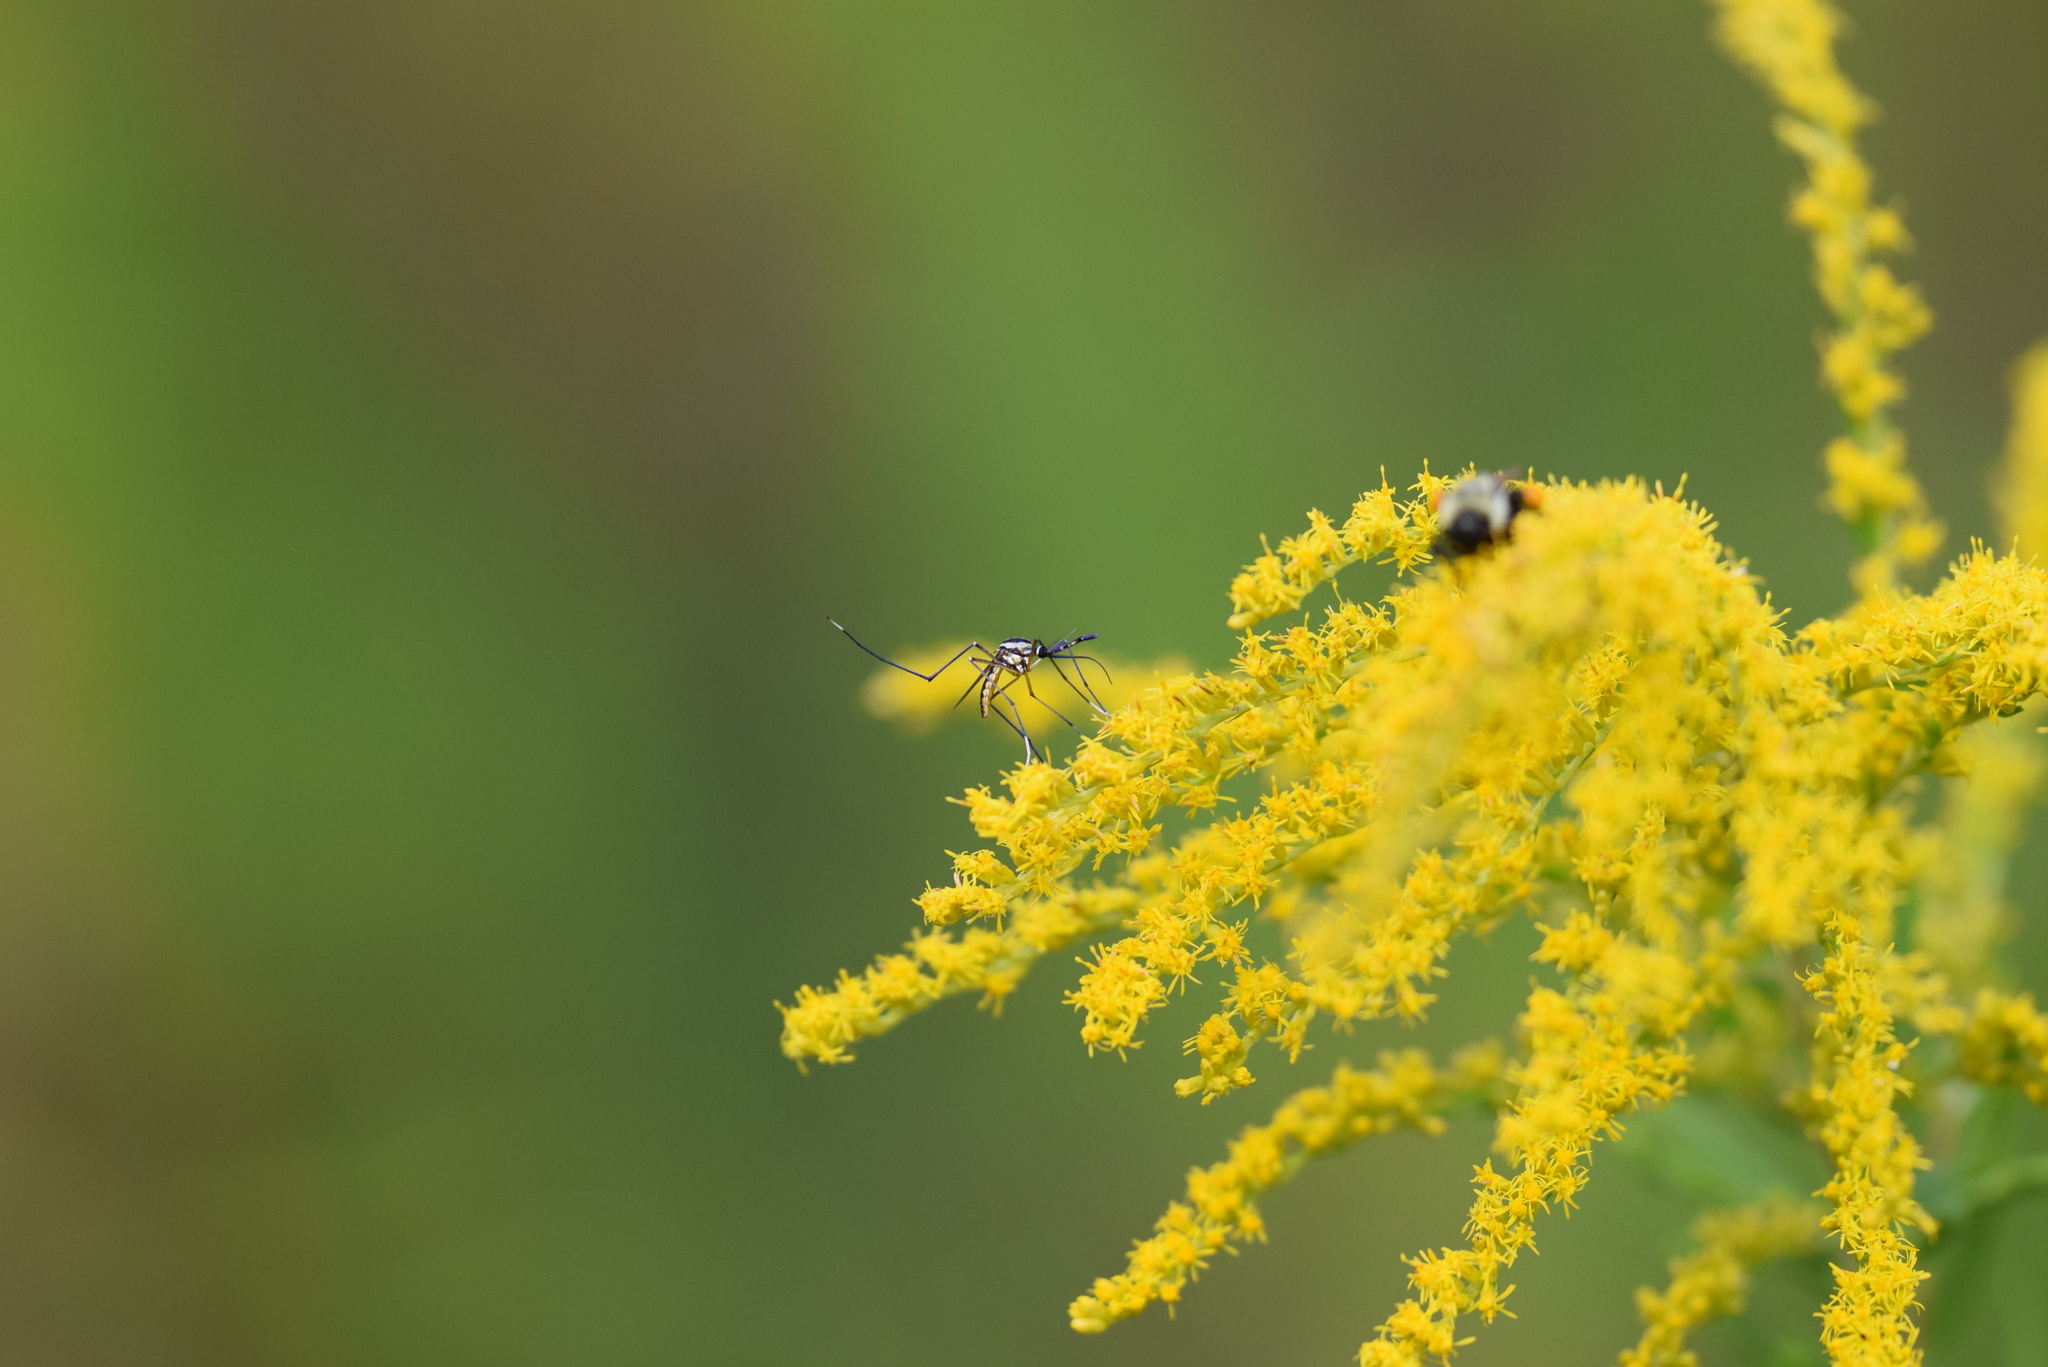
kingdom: Animalia
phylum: Arthropoda
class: Insecta
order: Diptera
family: Culicidae
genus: Toxorhynchites
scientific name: Toxorhynchites rutilus
